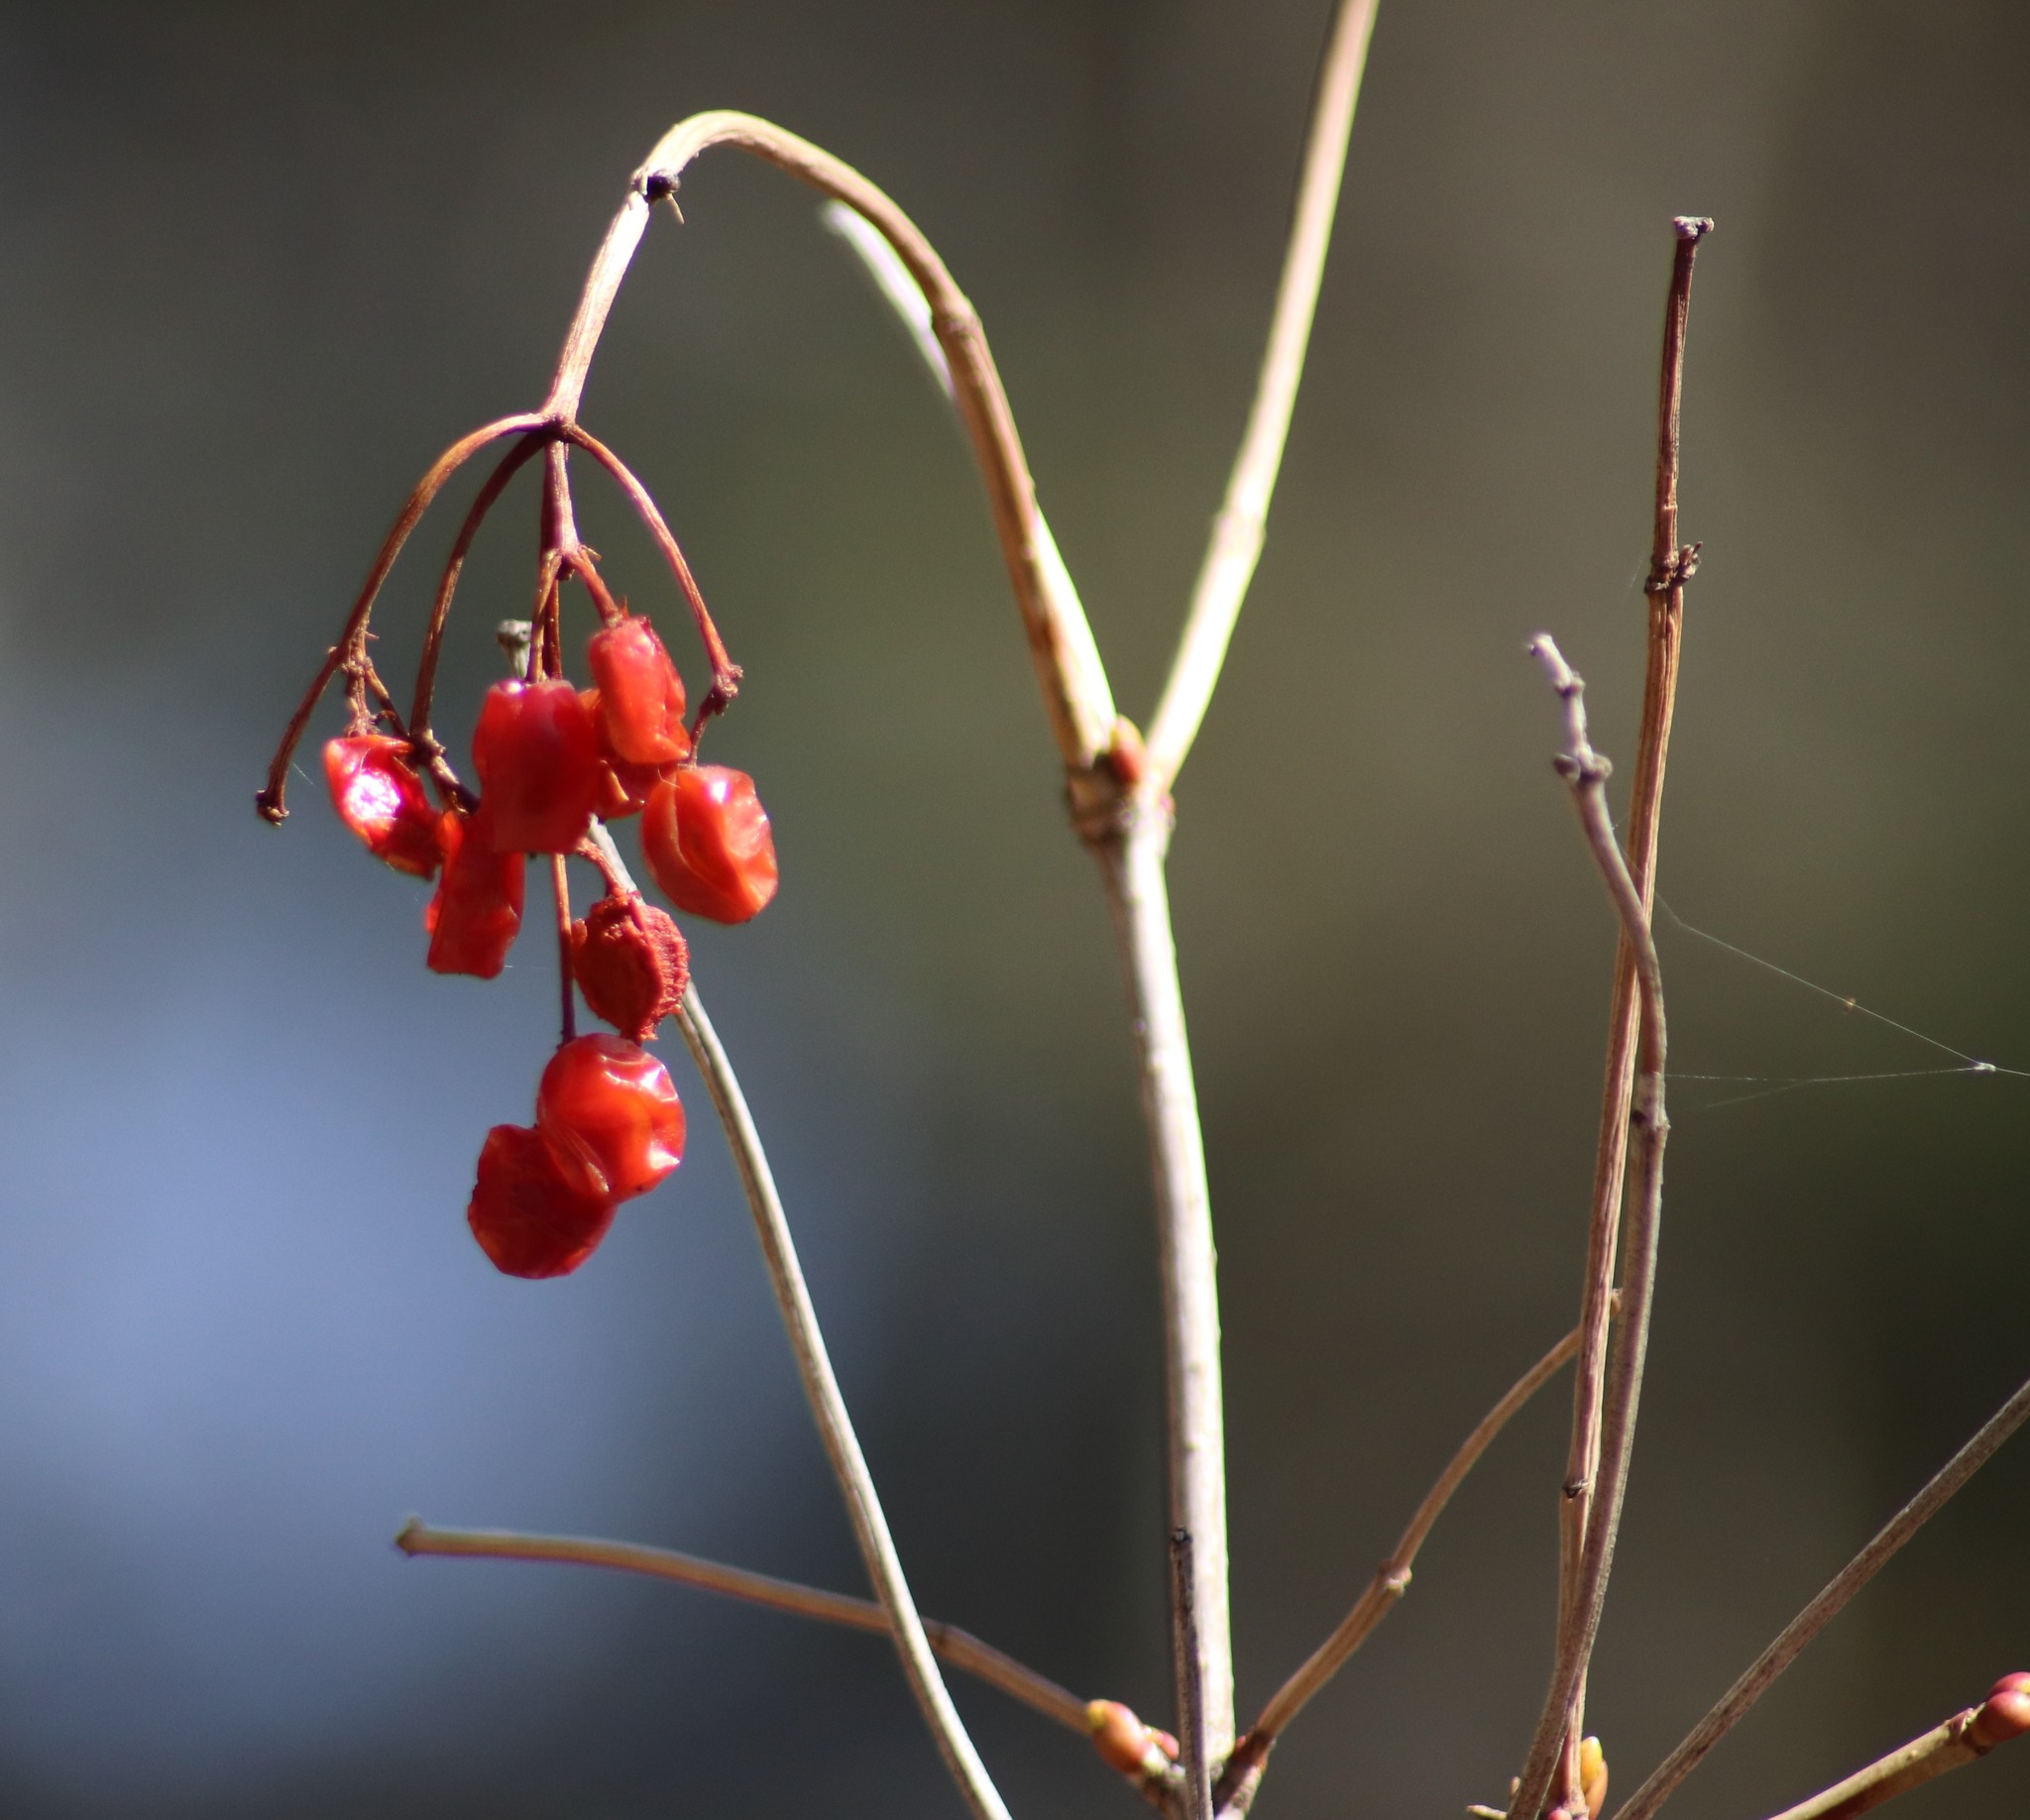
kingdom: Plantae
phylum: Tracheophyta
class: Magnoliopsida
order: Dipsacales
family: Viburnaceae
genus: Viburnum
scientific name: Viburnum opulus
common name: Guelder-rose
